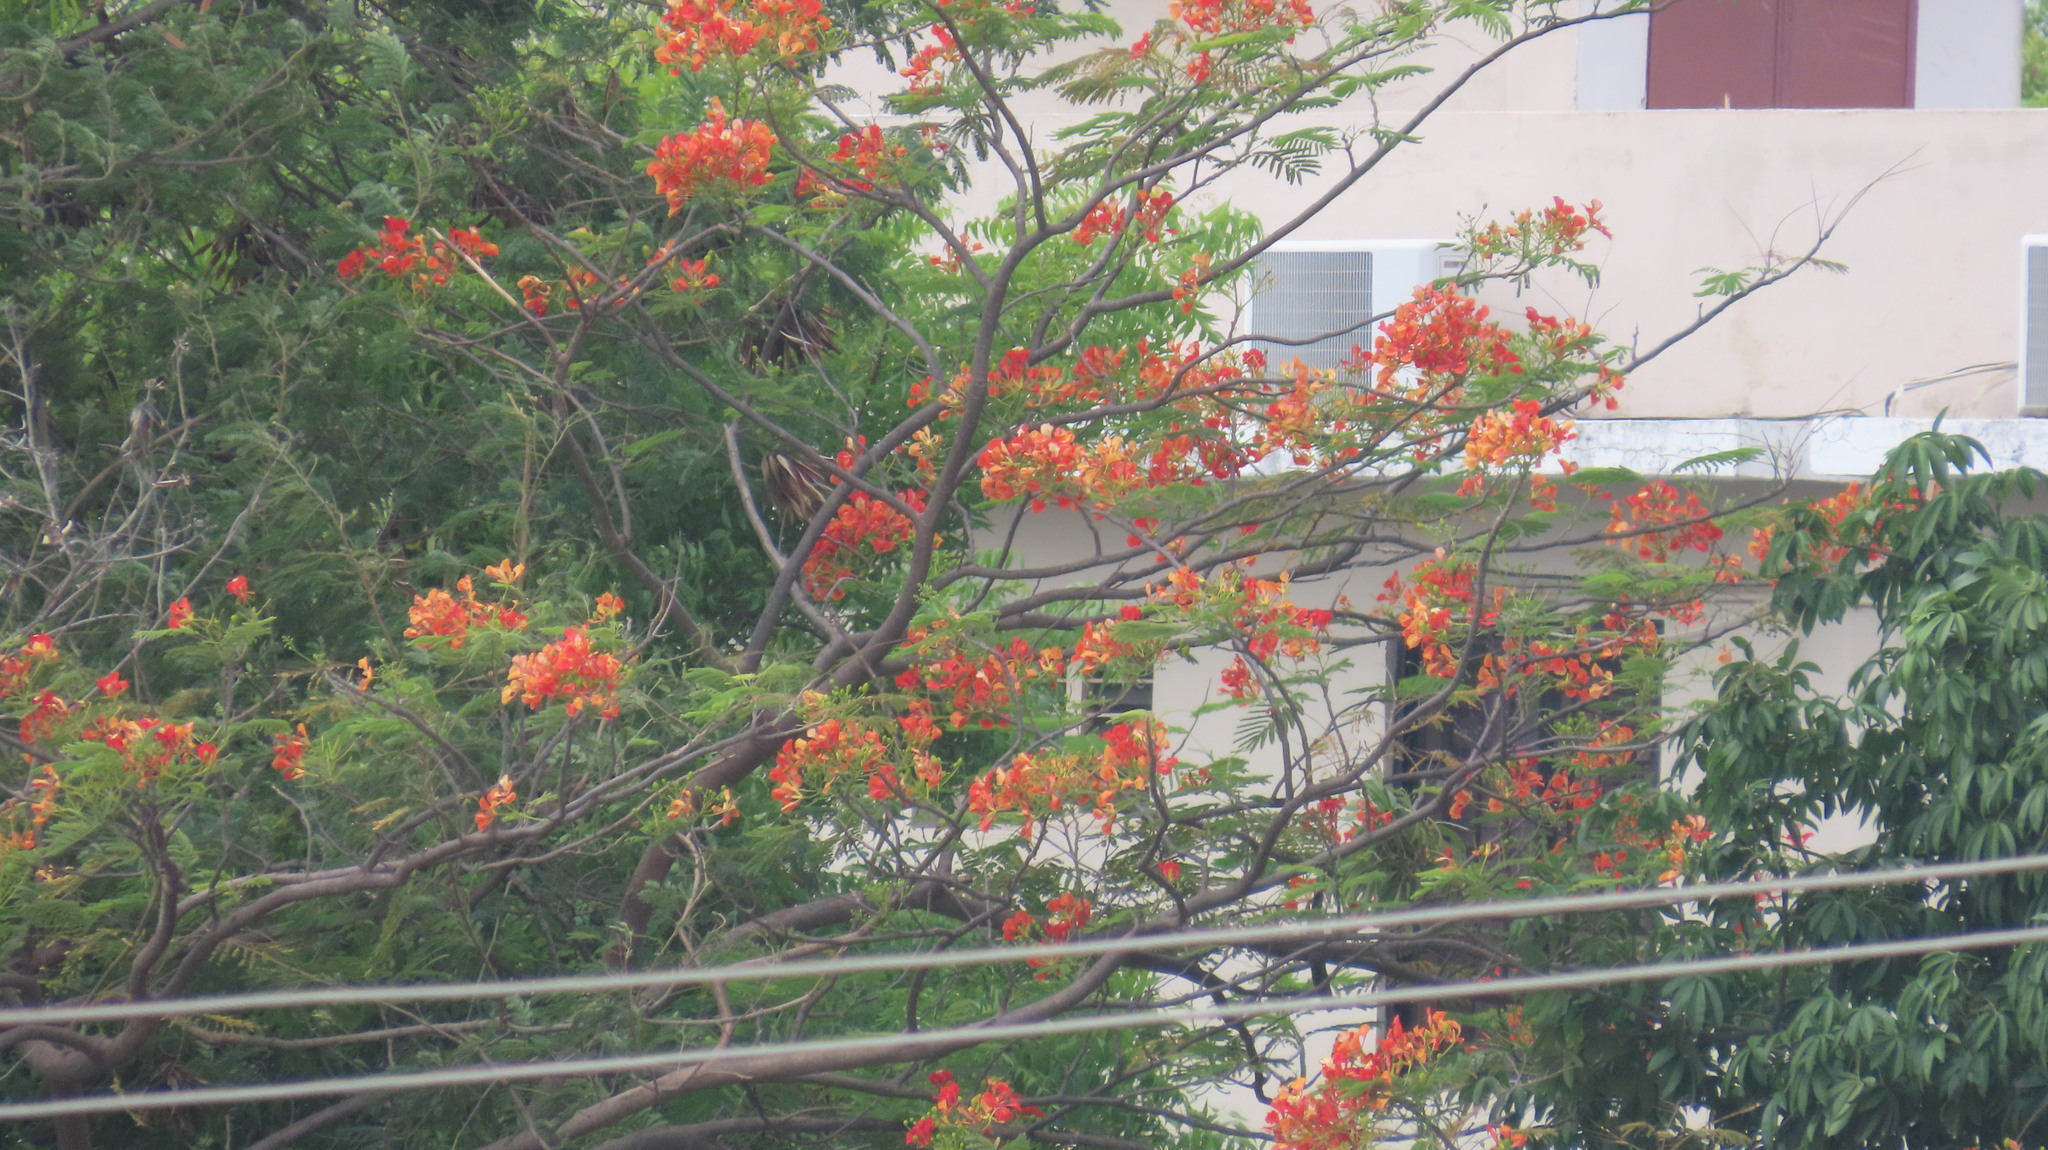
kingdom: Plantae
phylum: Tracheophyta
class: Magnoliopsida
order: Fabales
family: Fabaceae
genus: Delonix
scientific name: Delonix regia
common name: Royal poinciana
